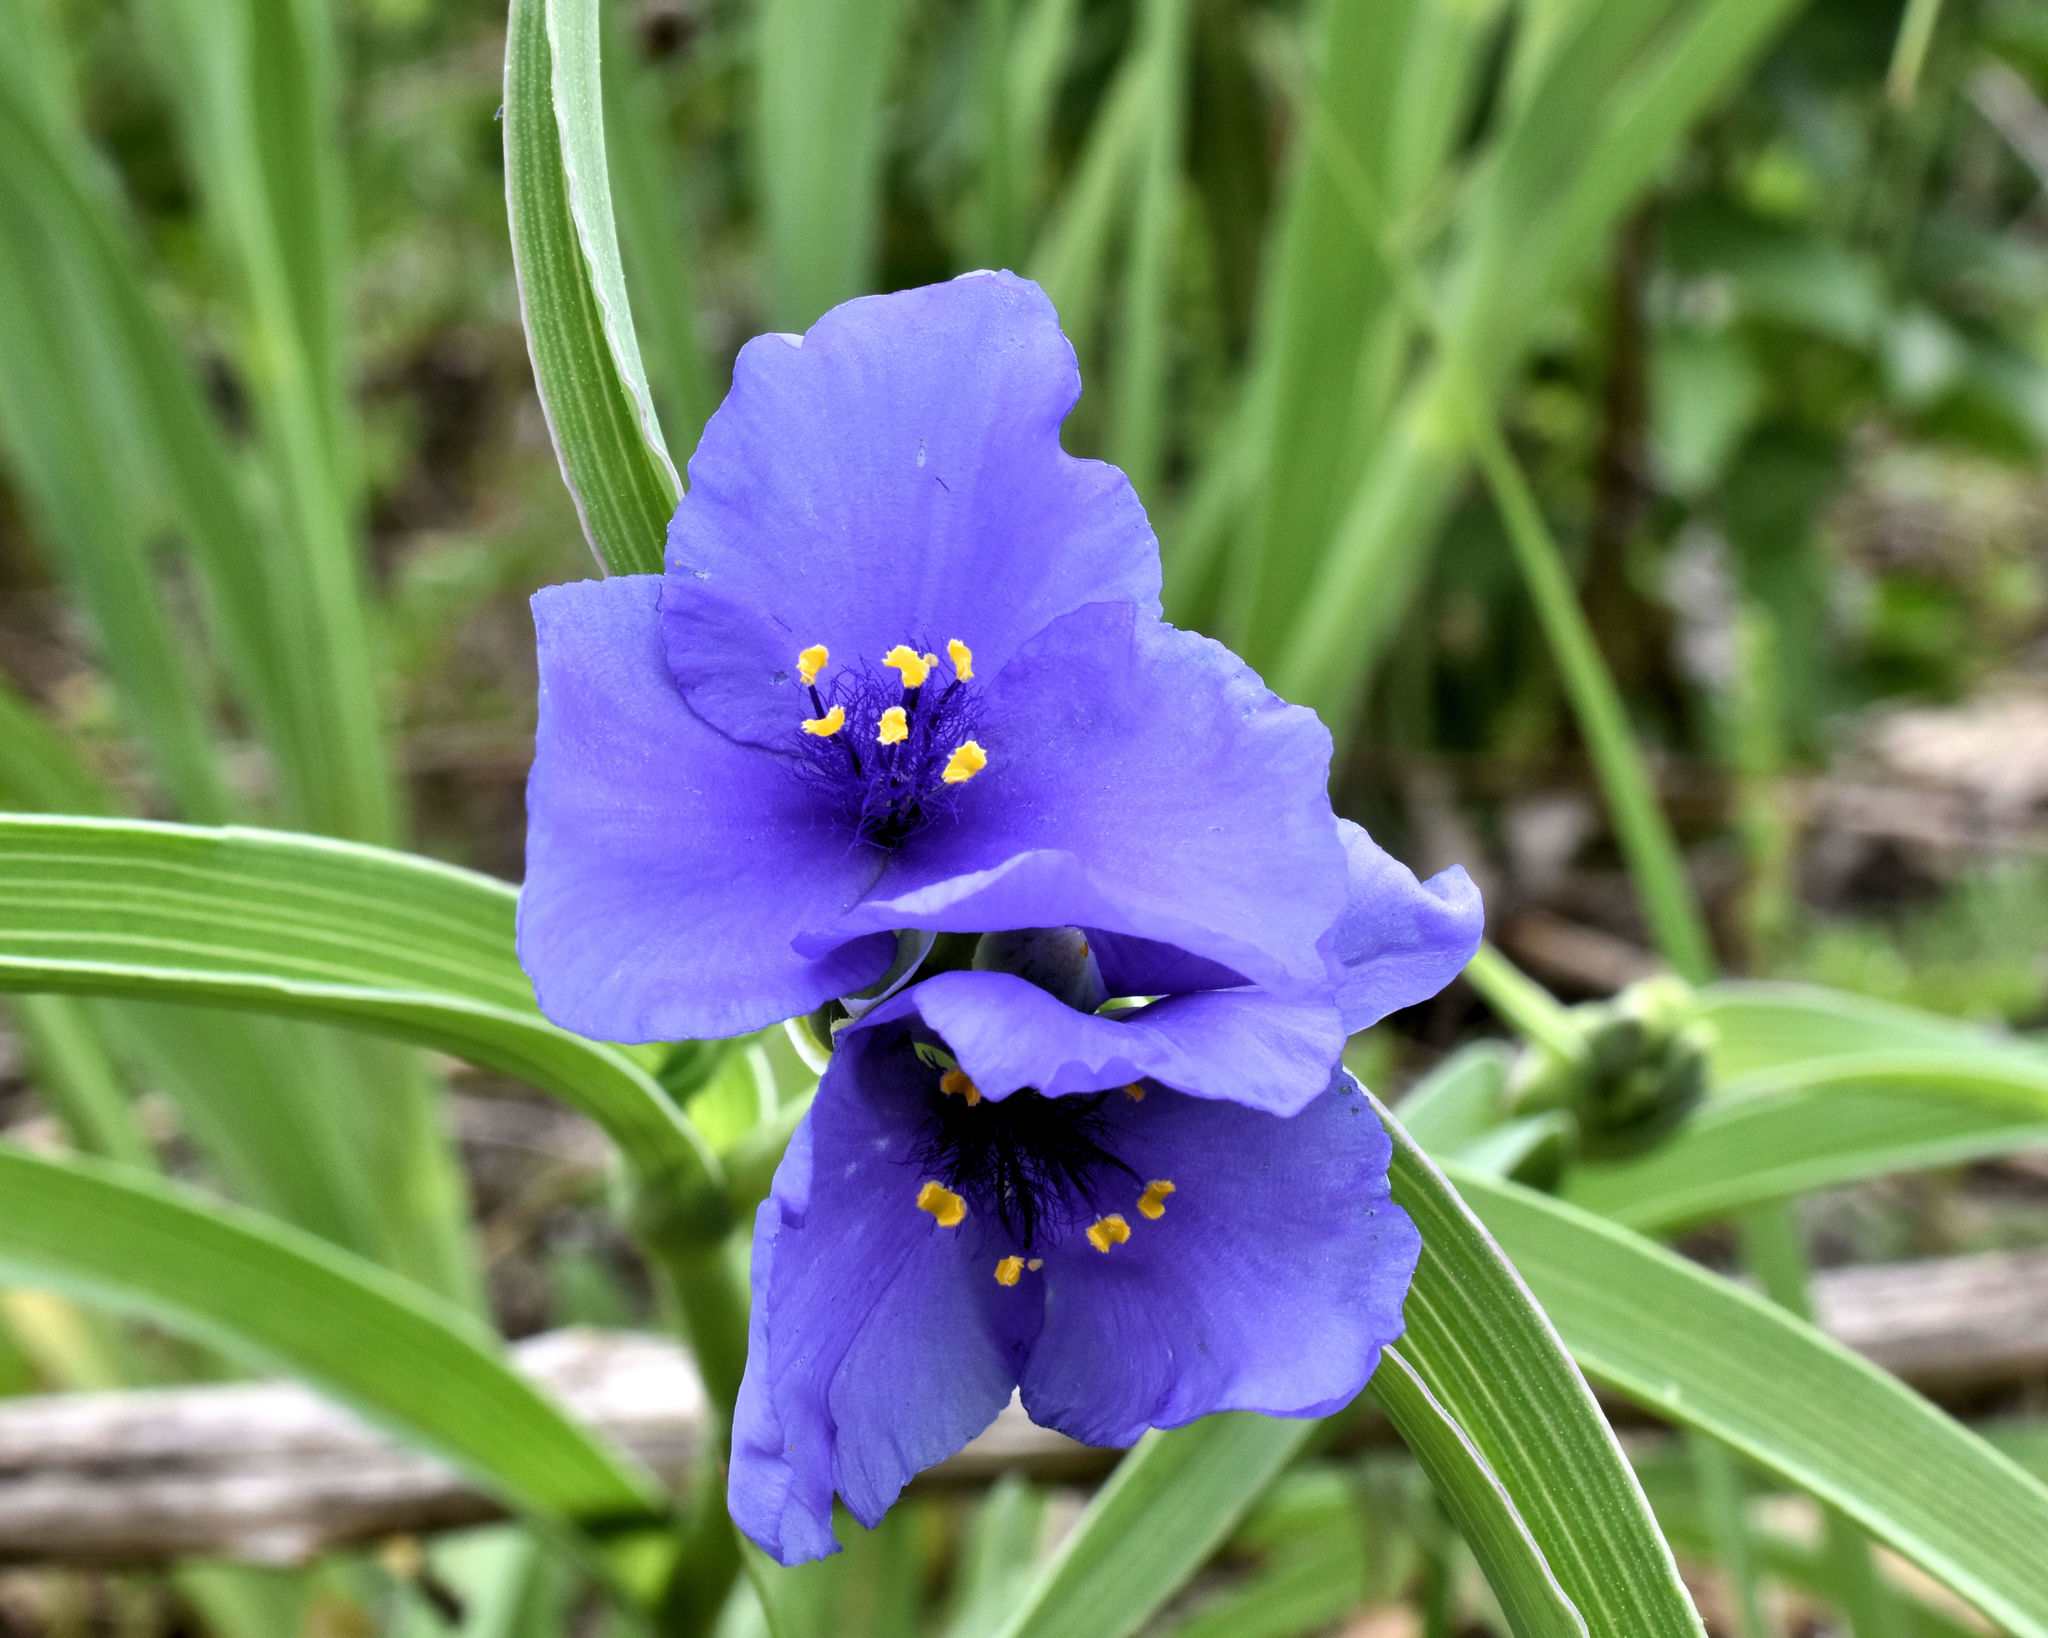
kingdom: Plantae
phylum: Tracheophyta
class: Liliopsida
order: Commelinales
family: Commelinaceae
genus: Tradescantia
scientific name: Tradescantia ohiensis
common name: Ohio spiderwort
